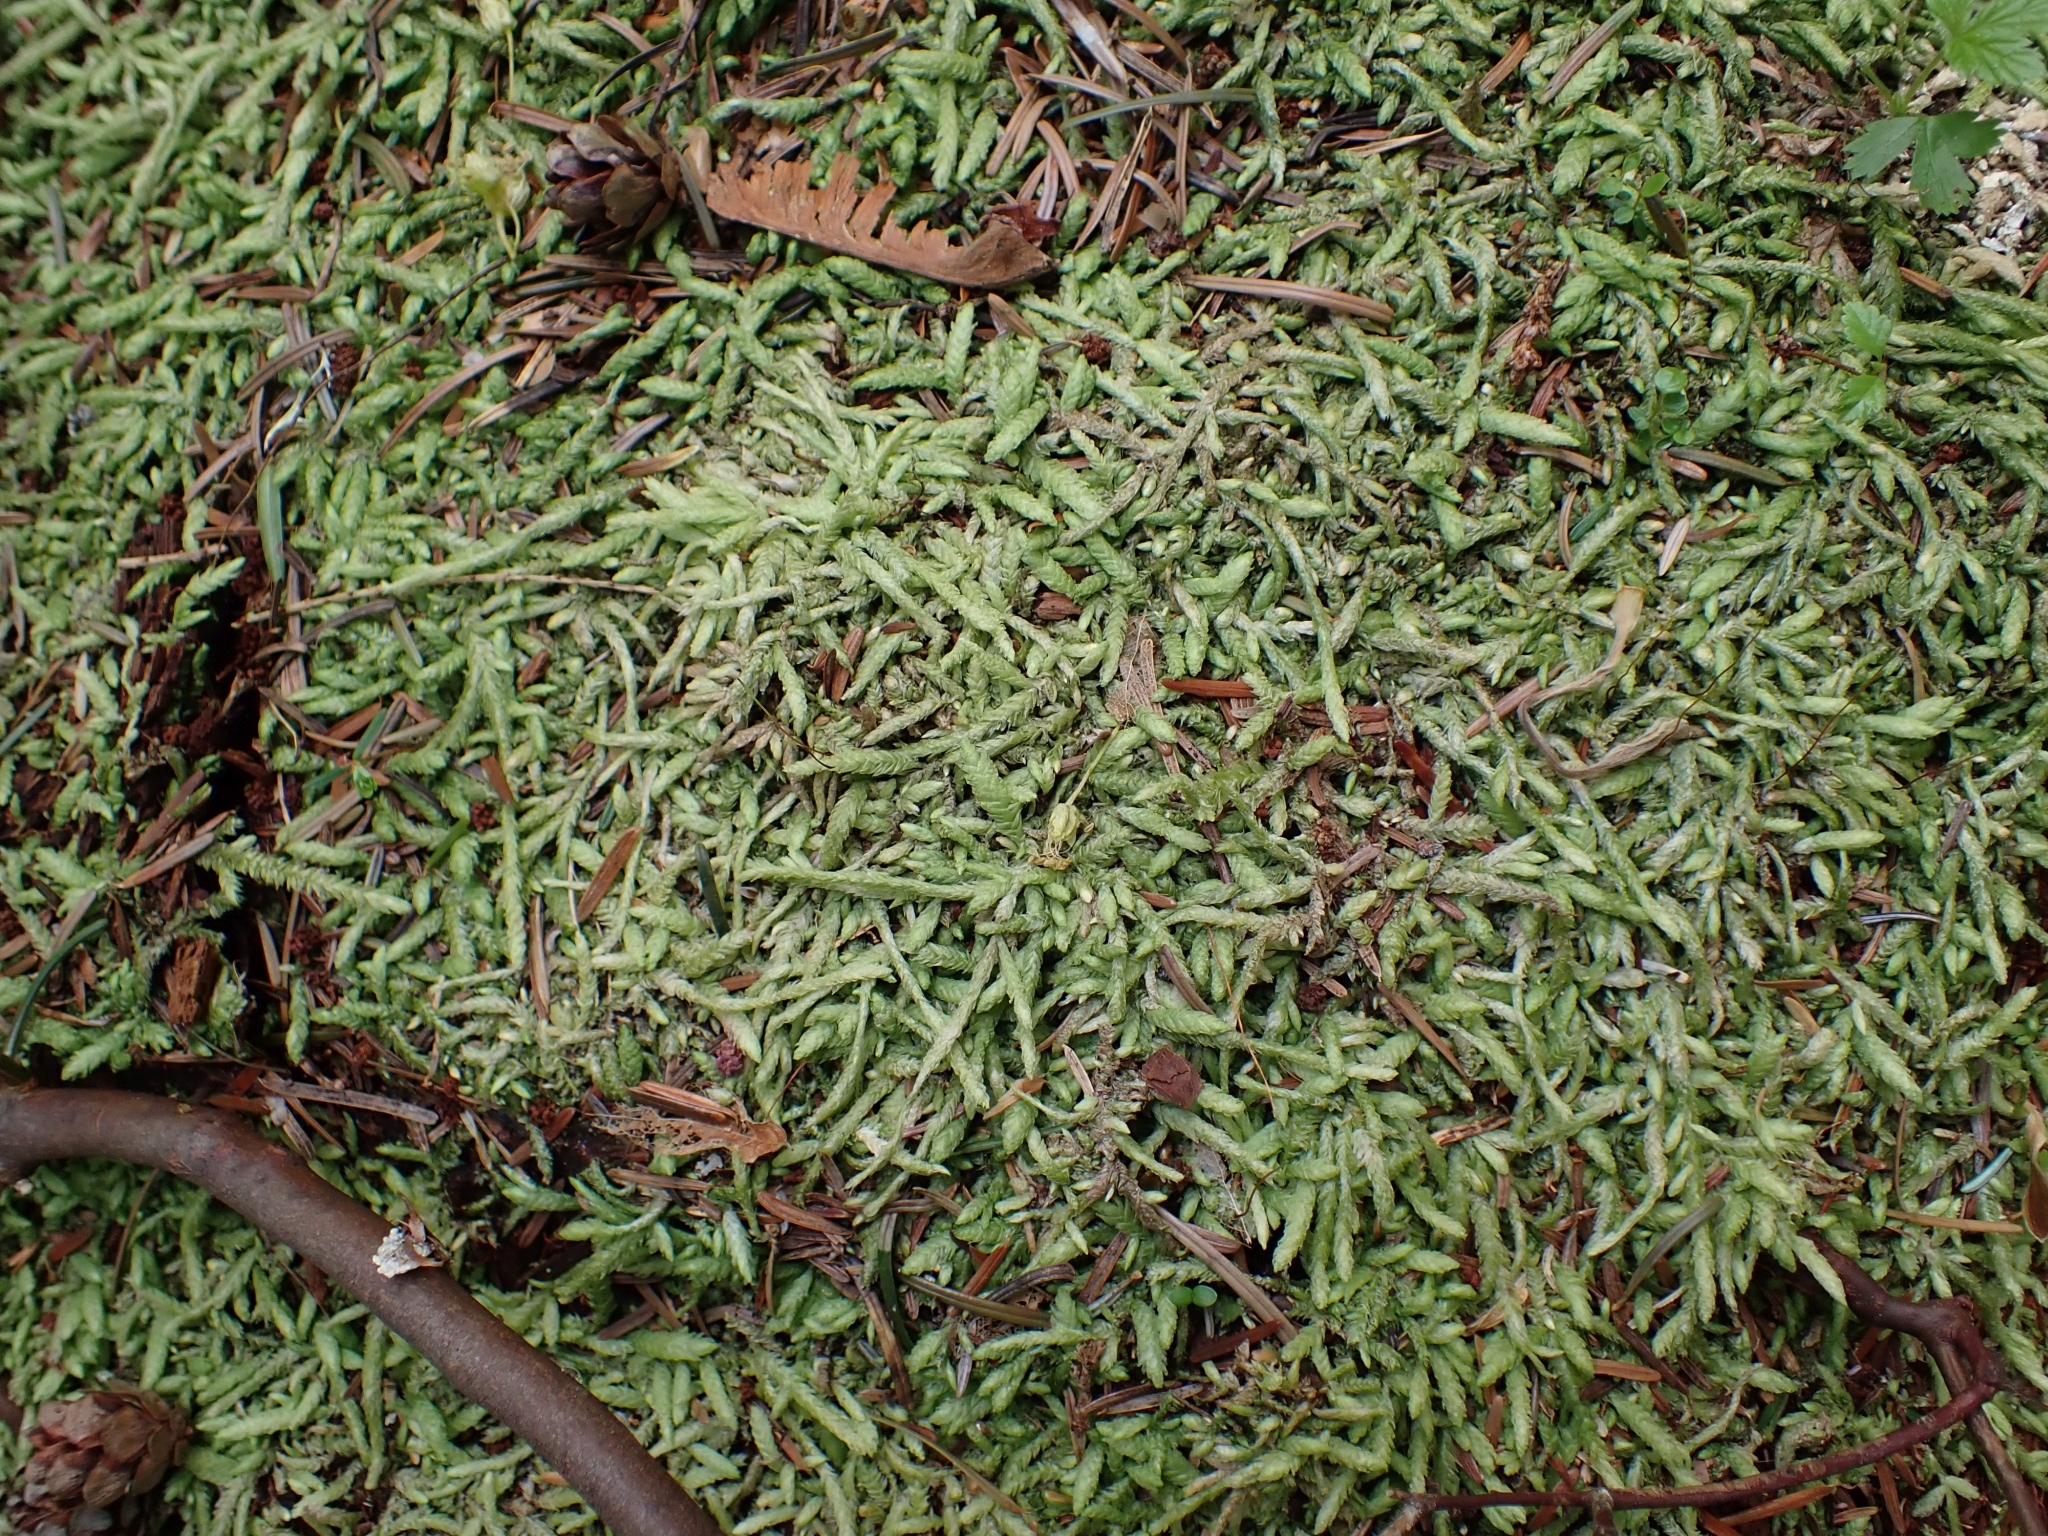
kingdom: Plantae
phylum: Bryophyta
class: Bryopsida
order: Hypnales
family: Plagiotheciaceae
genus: Plagiothecium
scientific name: Plagiothecium undulatum
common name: Waved silk-moss
